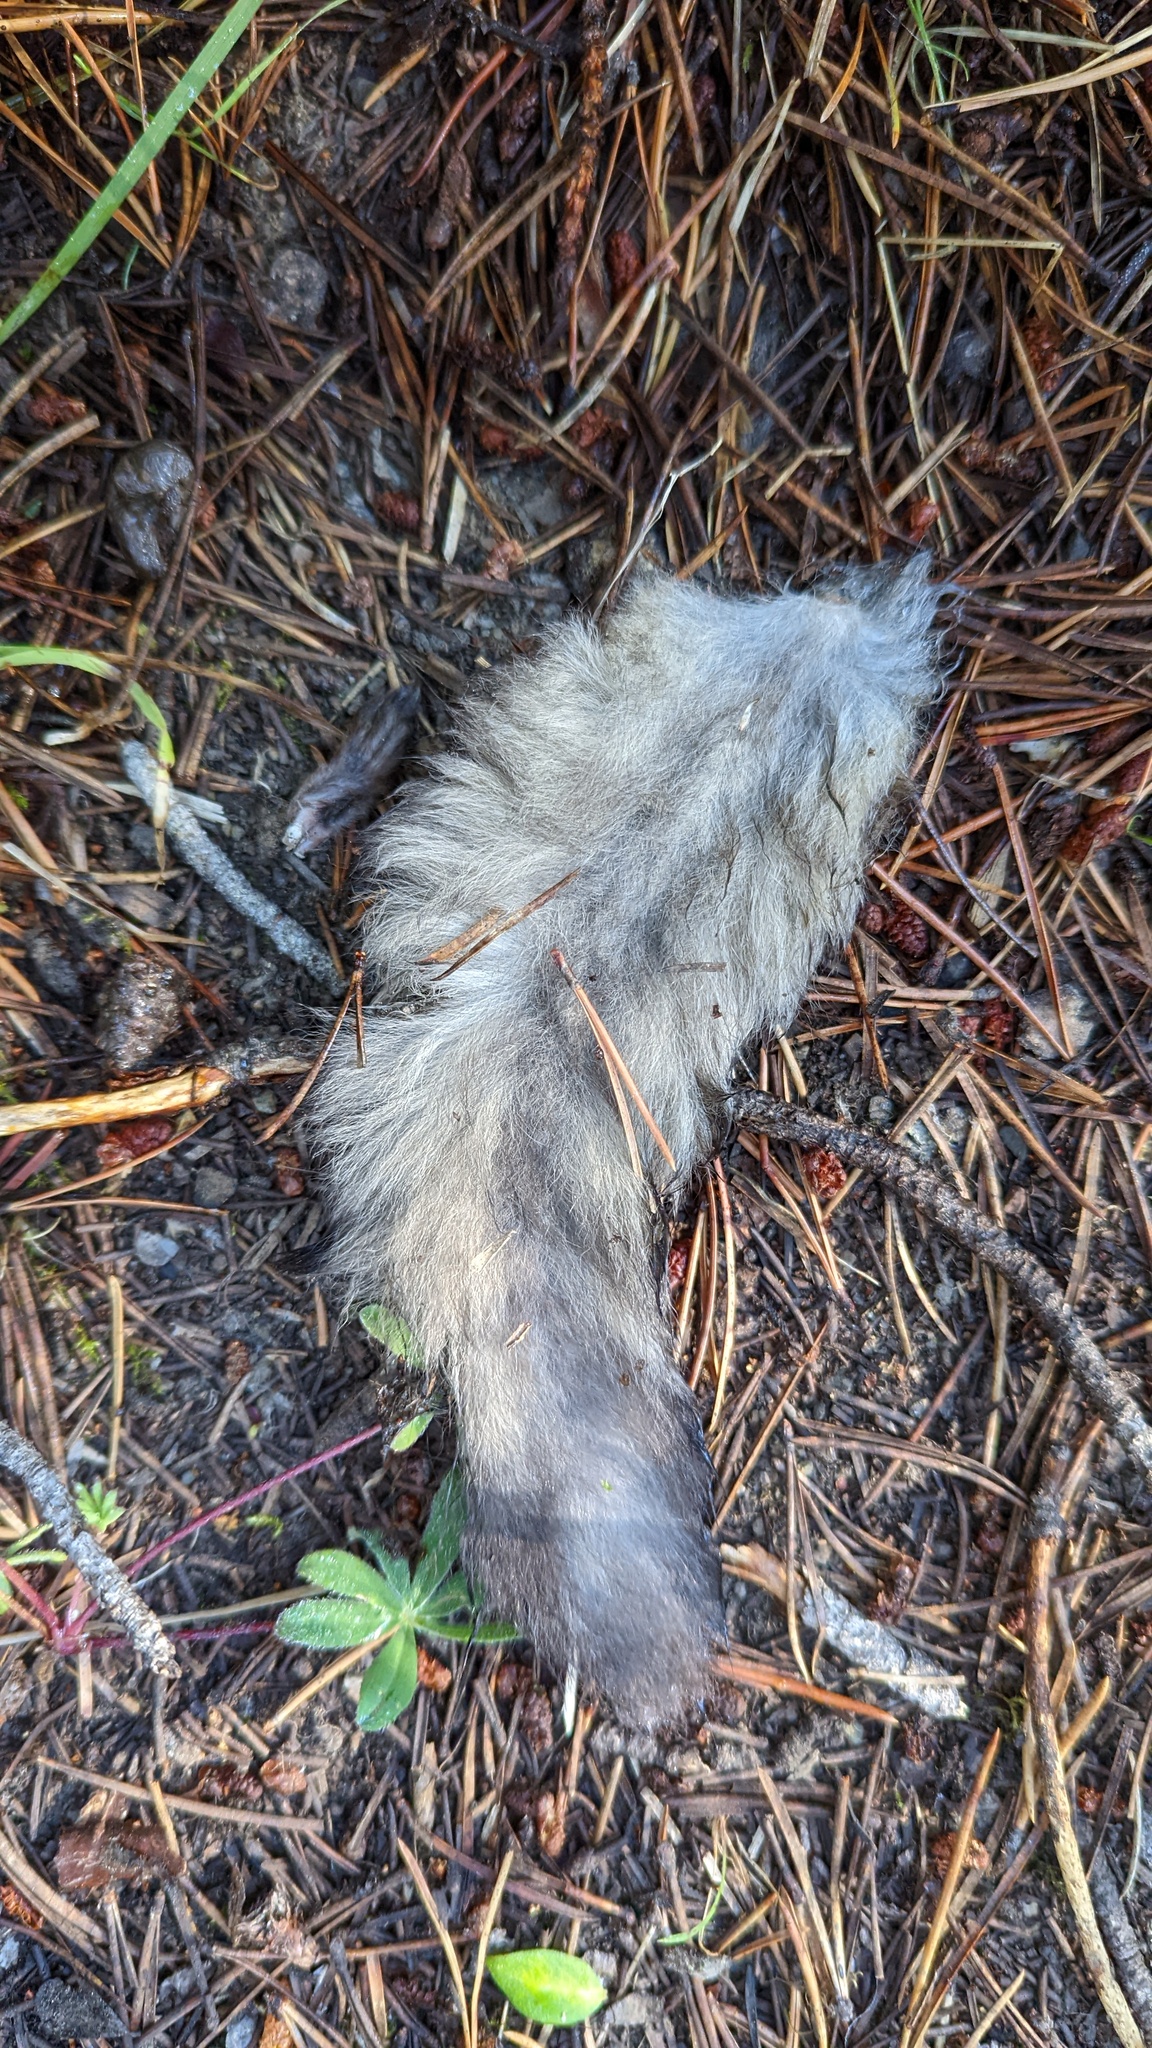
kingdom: Animalia
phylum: Chordata
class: Mammalia
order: Rodentia
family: Sciuridae
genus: Glaucomys
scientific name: Glaucomys sabrinus
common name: Northern flying squirrel
